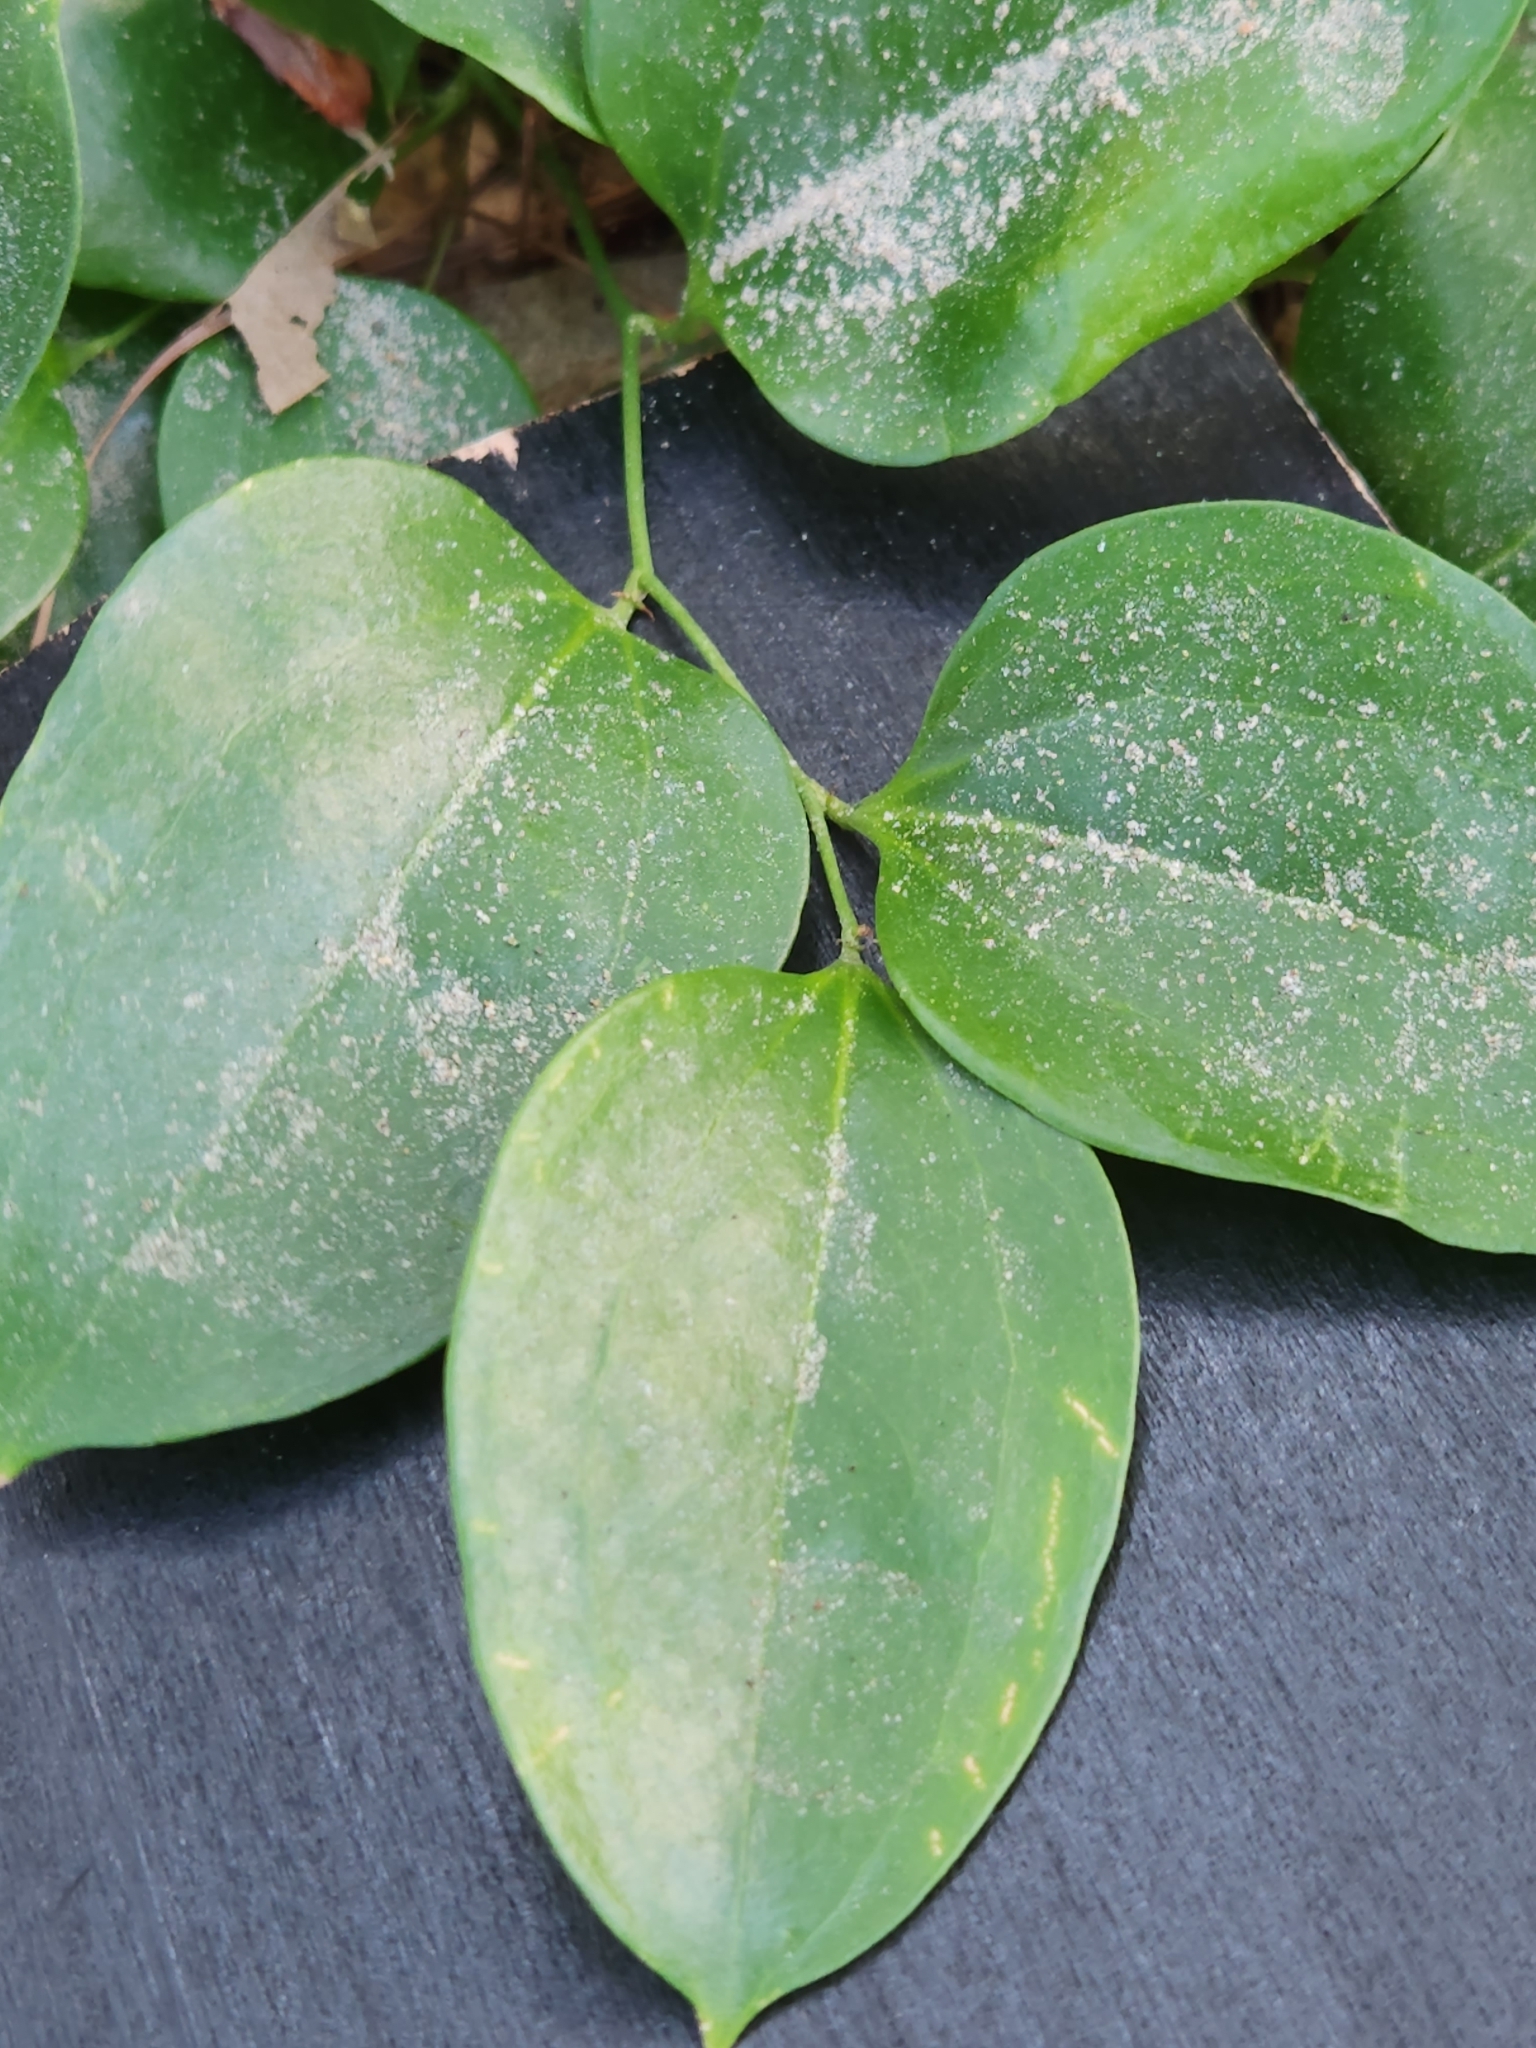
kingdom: Plantae
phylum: Tracheophyta
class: Liliopsida
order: Liliales
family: Smilacaceae
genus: Smilax
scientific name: Smilax maritima
